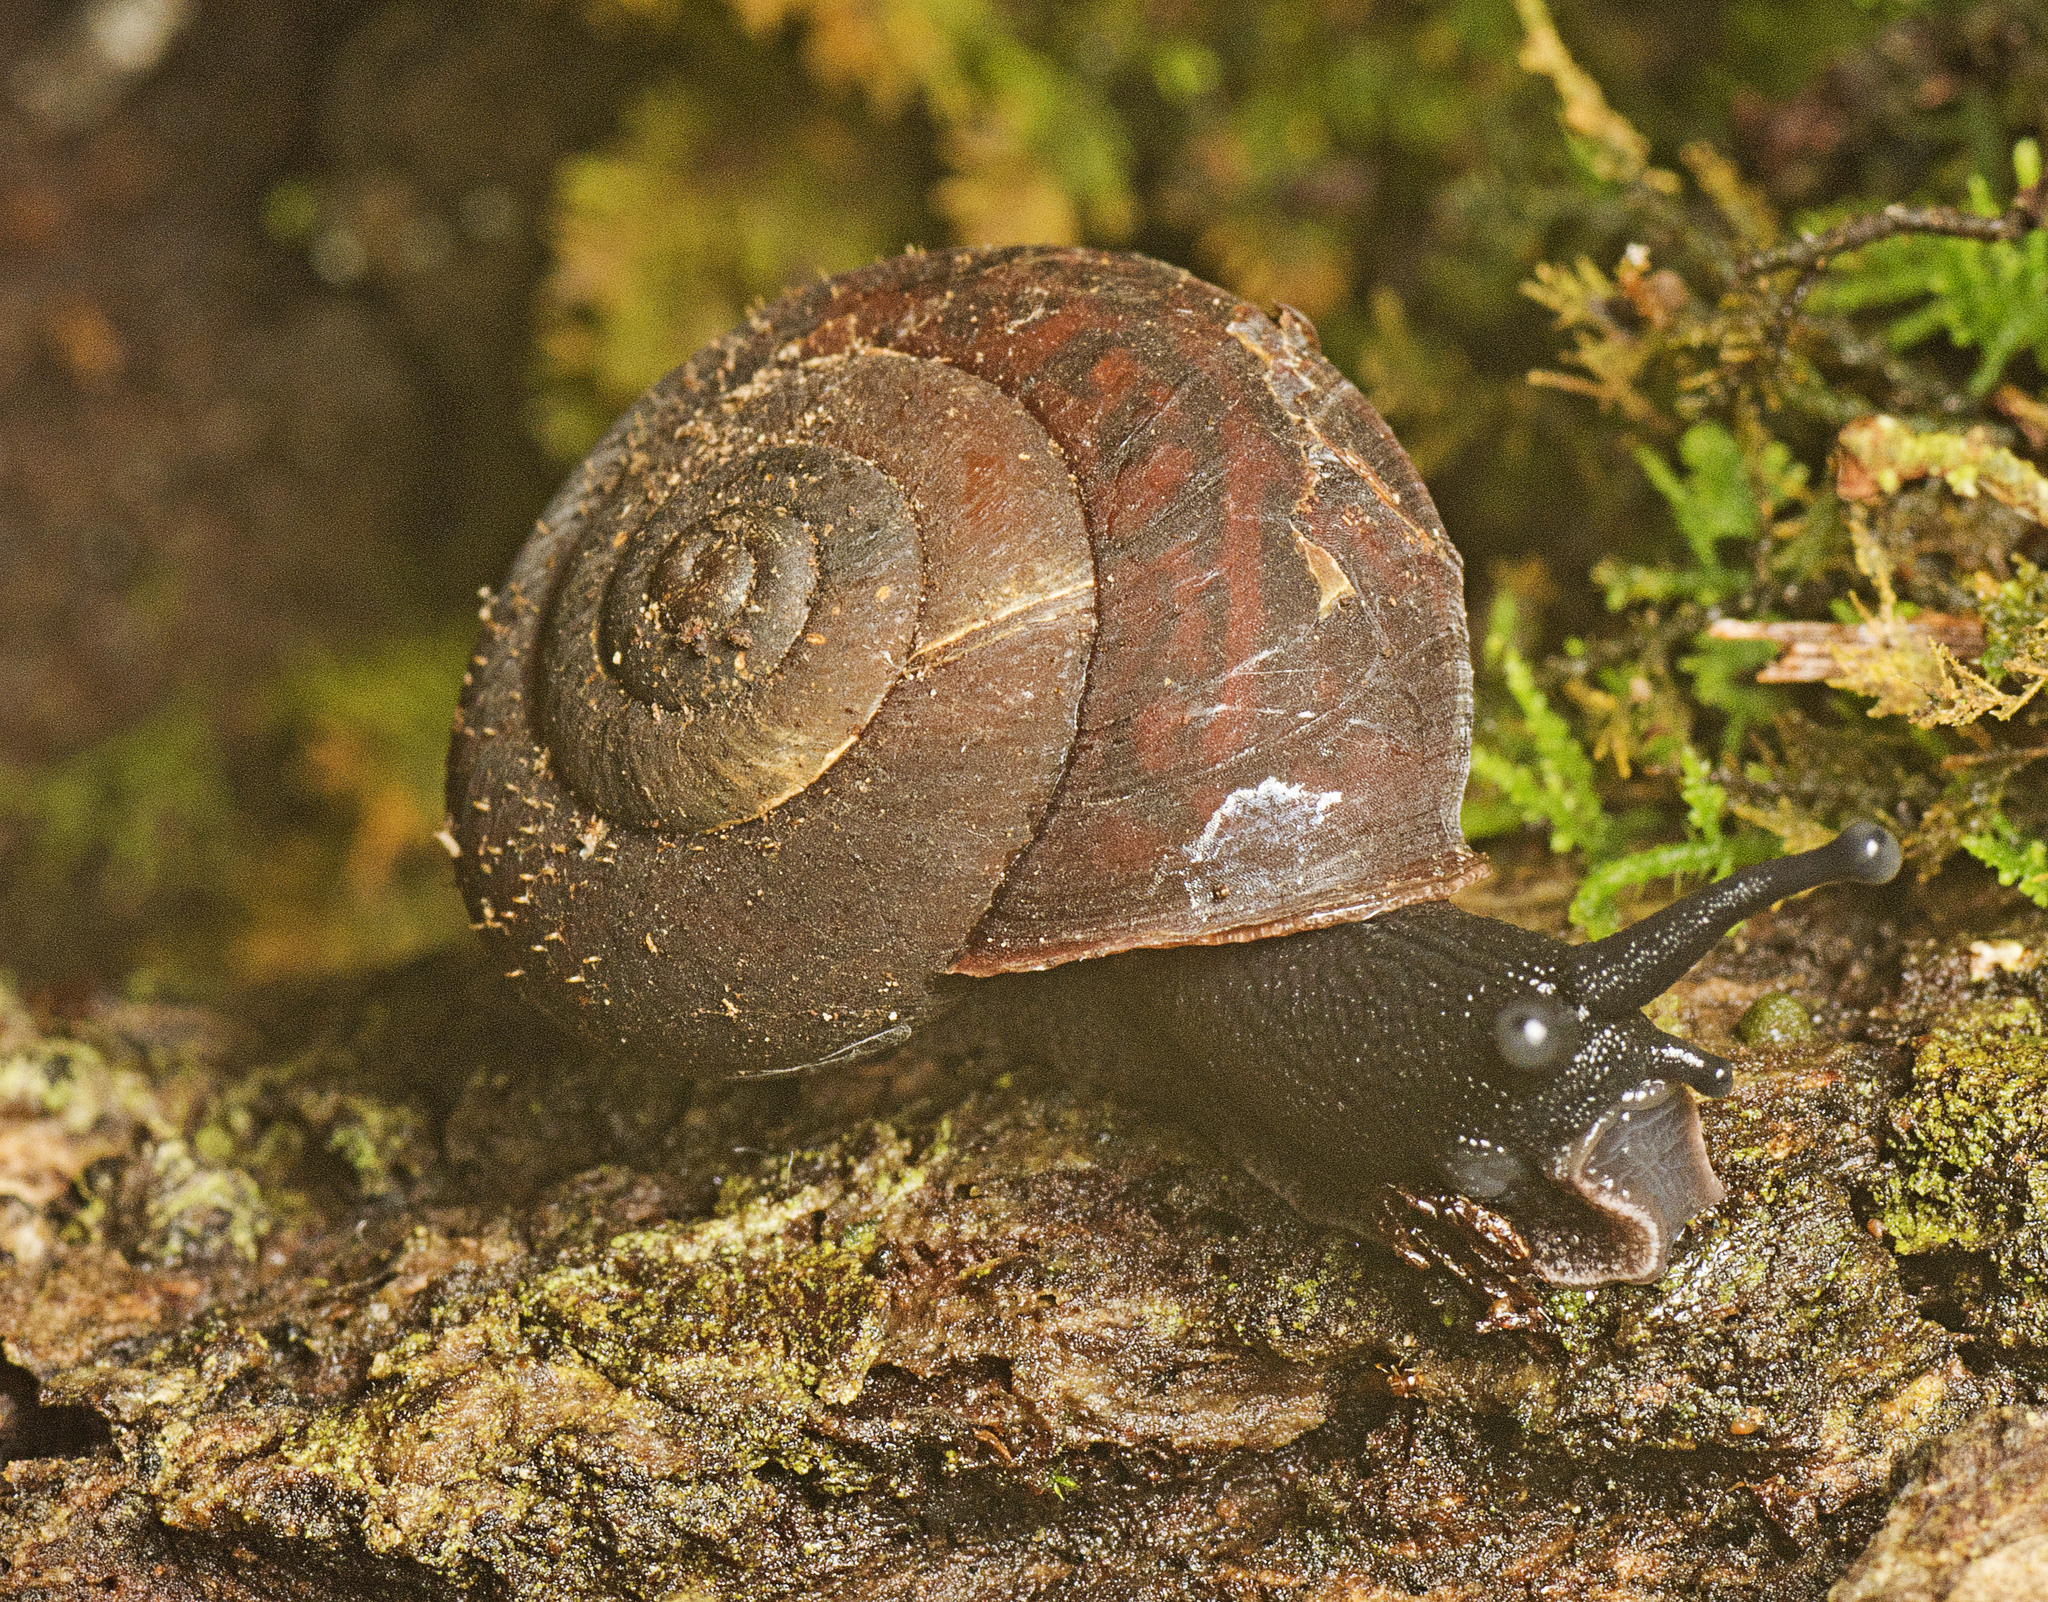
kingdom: Animalia
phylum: Mollusca
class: Gastropoda
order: Stylommatophora
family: Camaenidae
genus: Ramogenia
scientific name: Ramogenia challengeri
